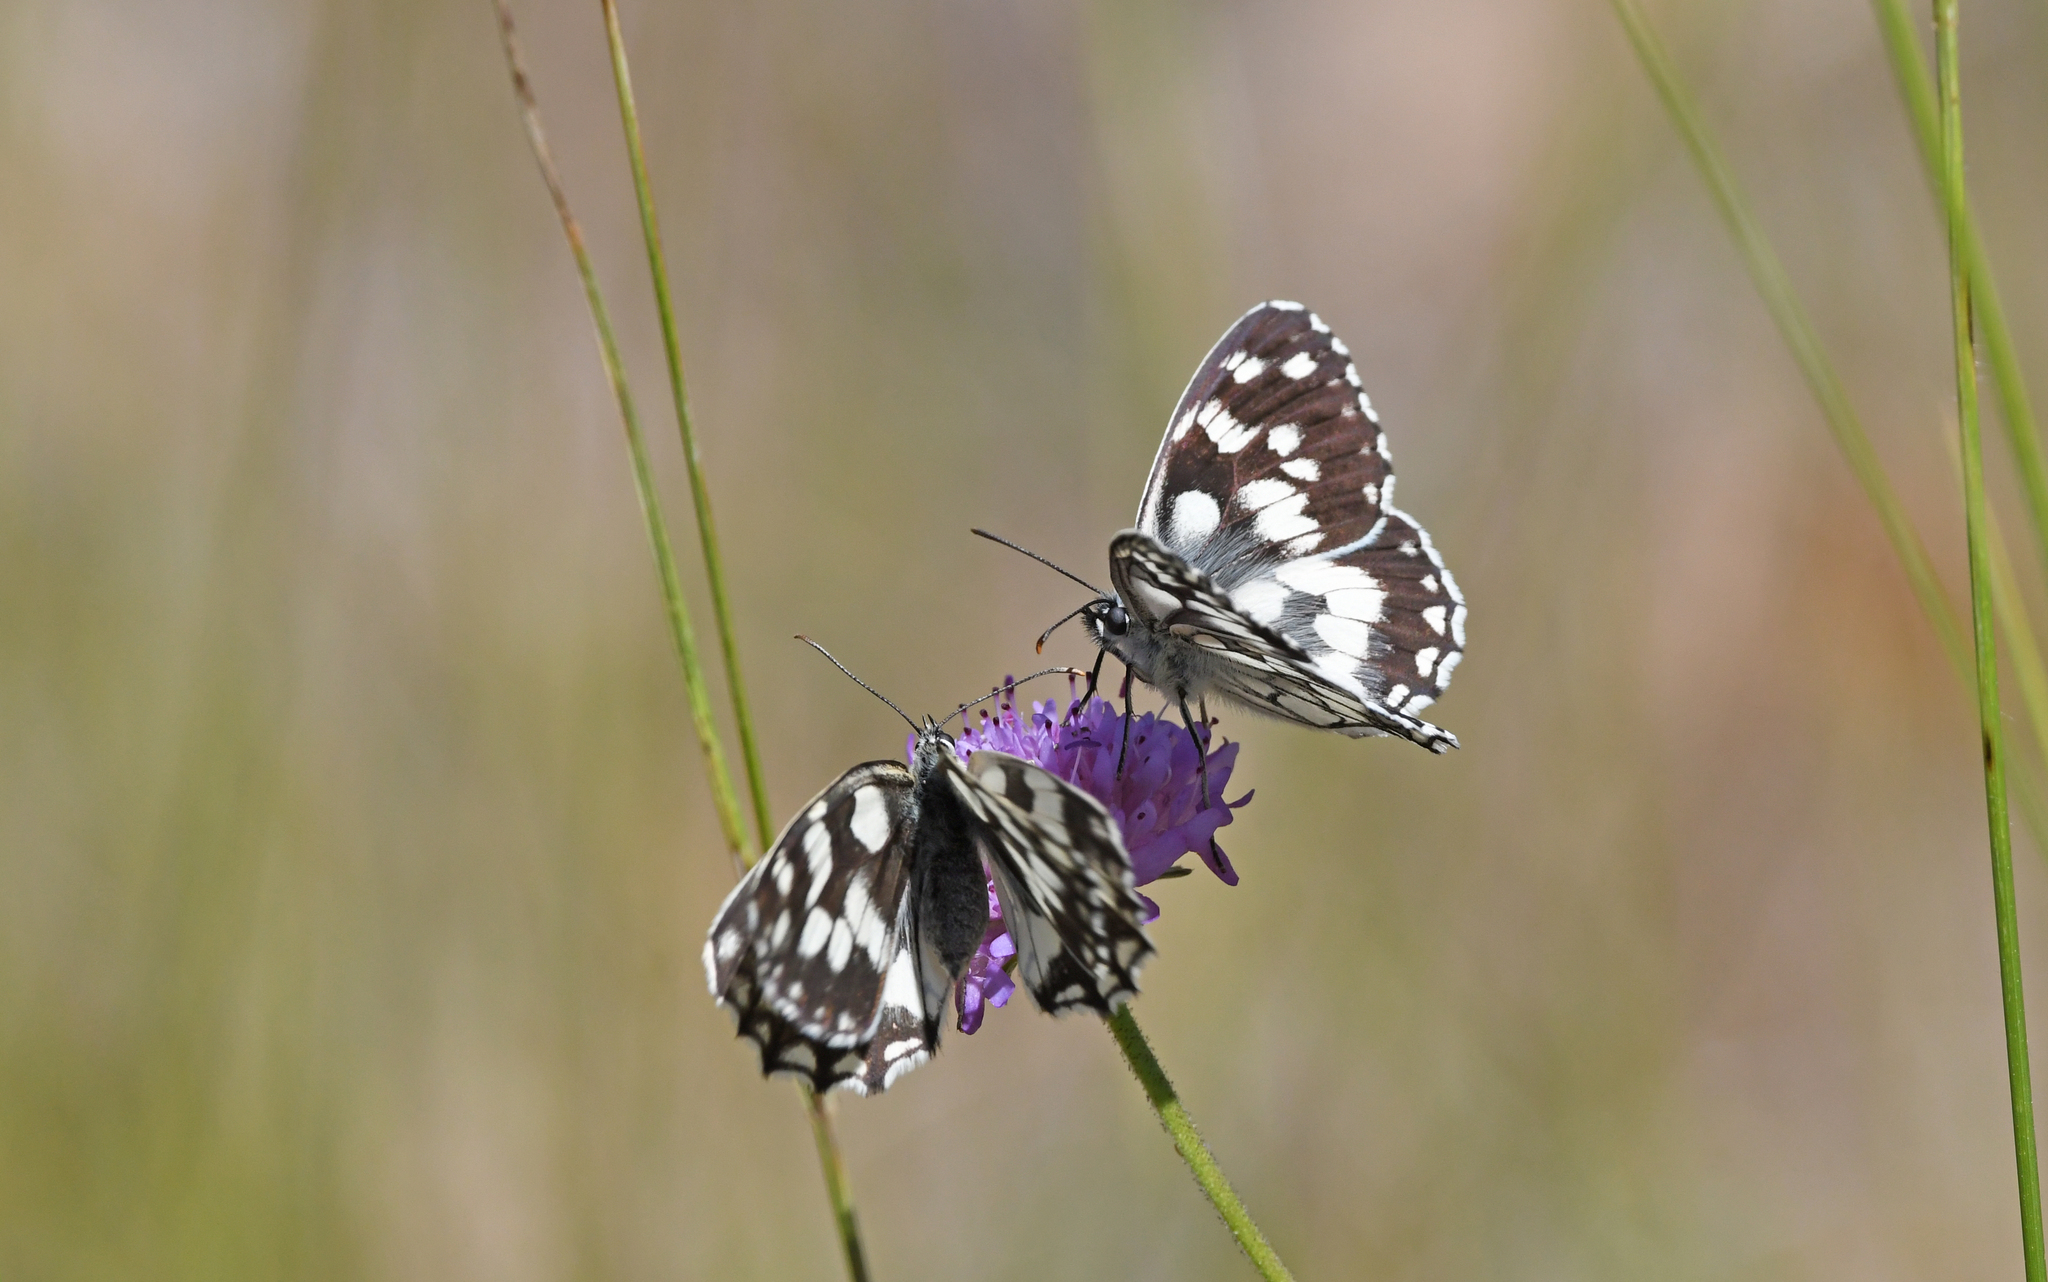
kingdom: Animalia
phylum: Arthropoda
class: Insecta
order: Lepidoptera
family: Nymphalidae
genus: Melanargia
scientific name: Melanargia galathea
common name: Marbled white
